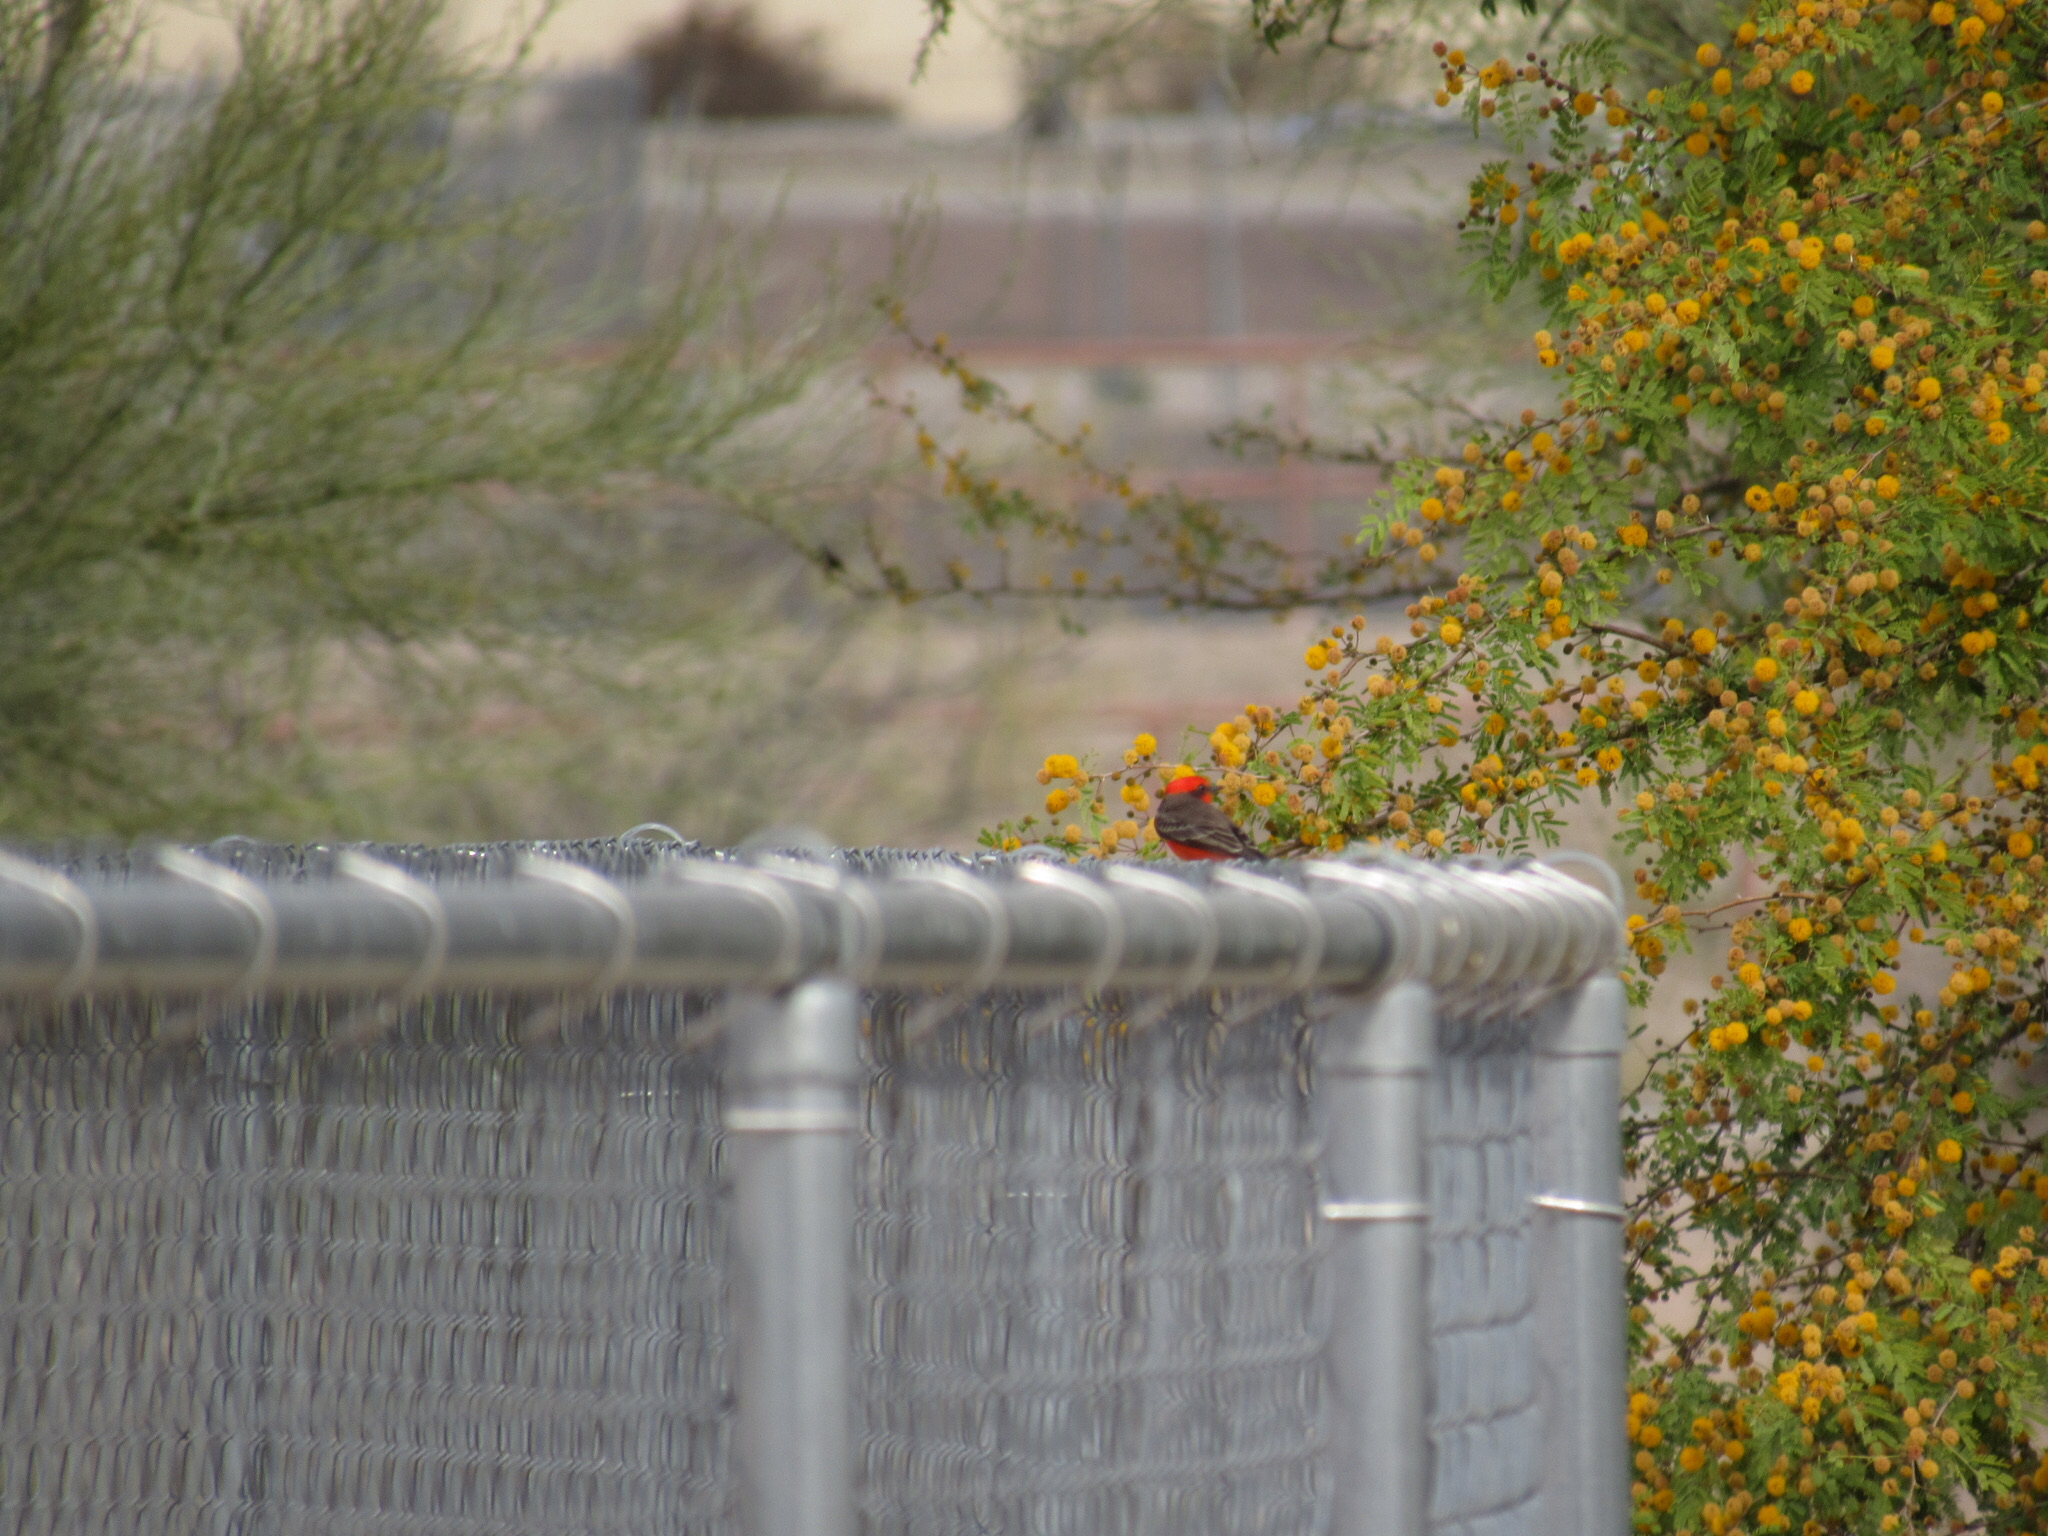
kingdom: Animalia
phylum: Chordata
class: Aves
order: Passeriformes
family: Tyrannidae
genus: Pyrocephalus
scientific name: Pyrocephalus rubinus
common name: Vermilion flycatcher
